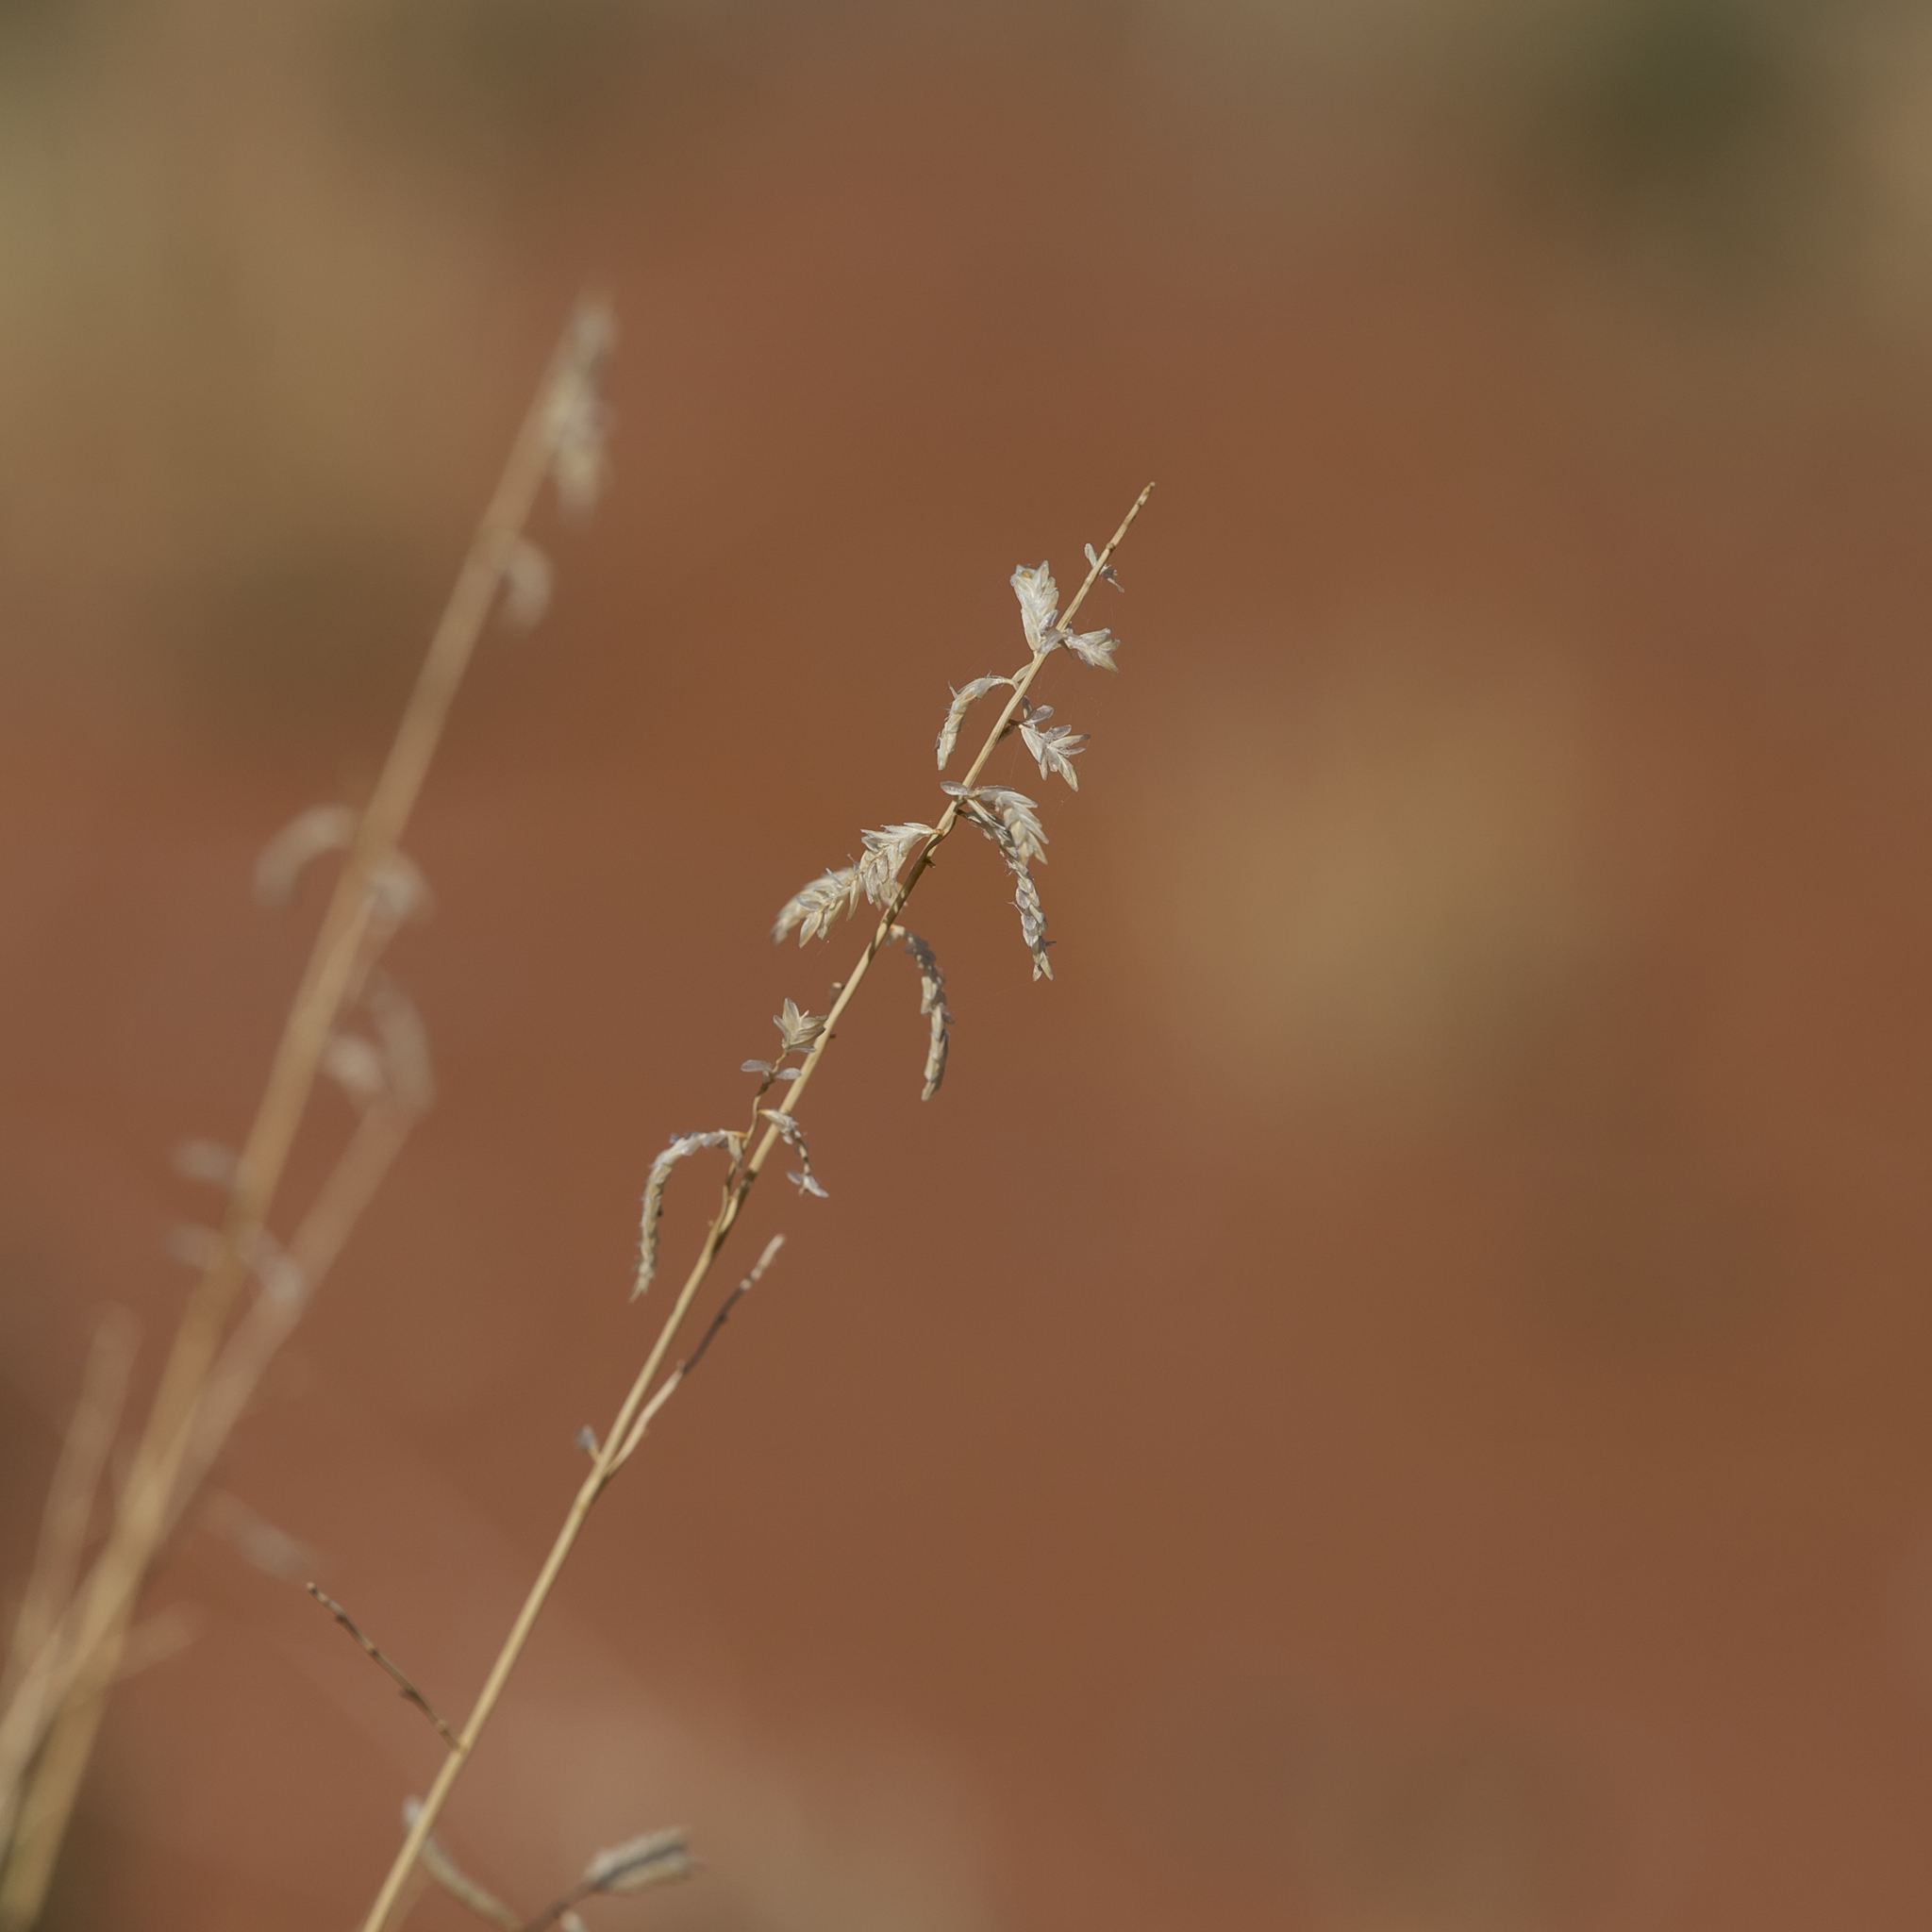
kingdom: Plantae
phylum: Tracheophyta
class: Liliopsida
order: Poales
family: Poaceae
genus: Eragrostis
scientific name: Eragrostis eriopoda
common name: Plain neverfail
